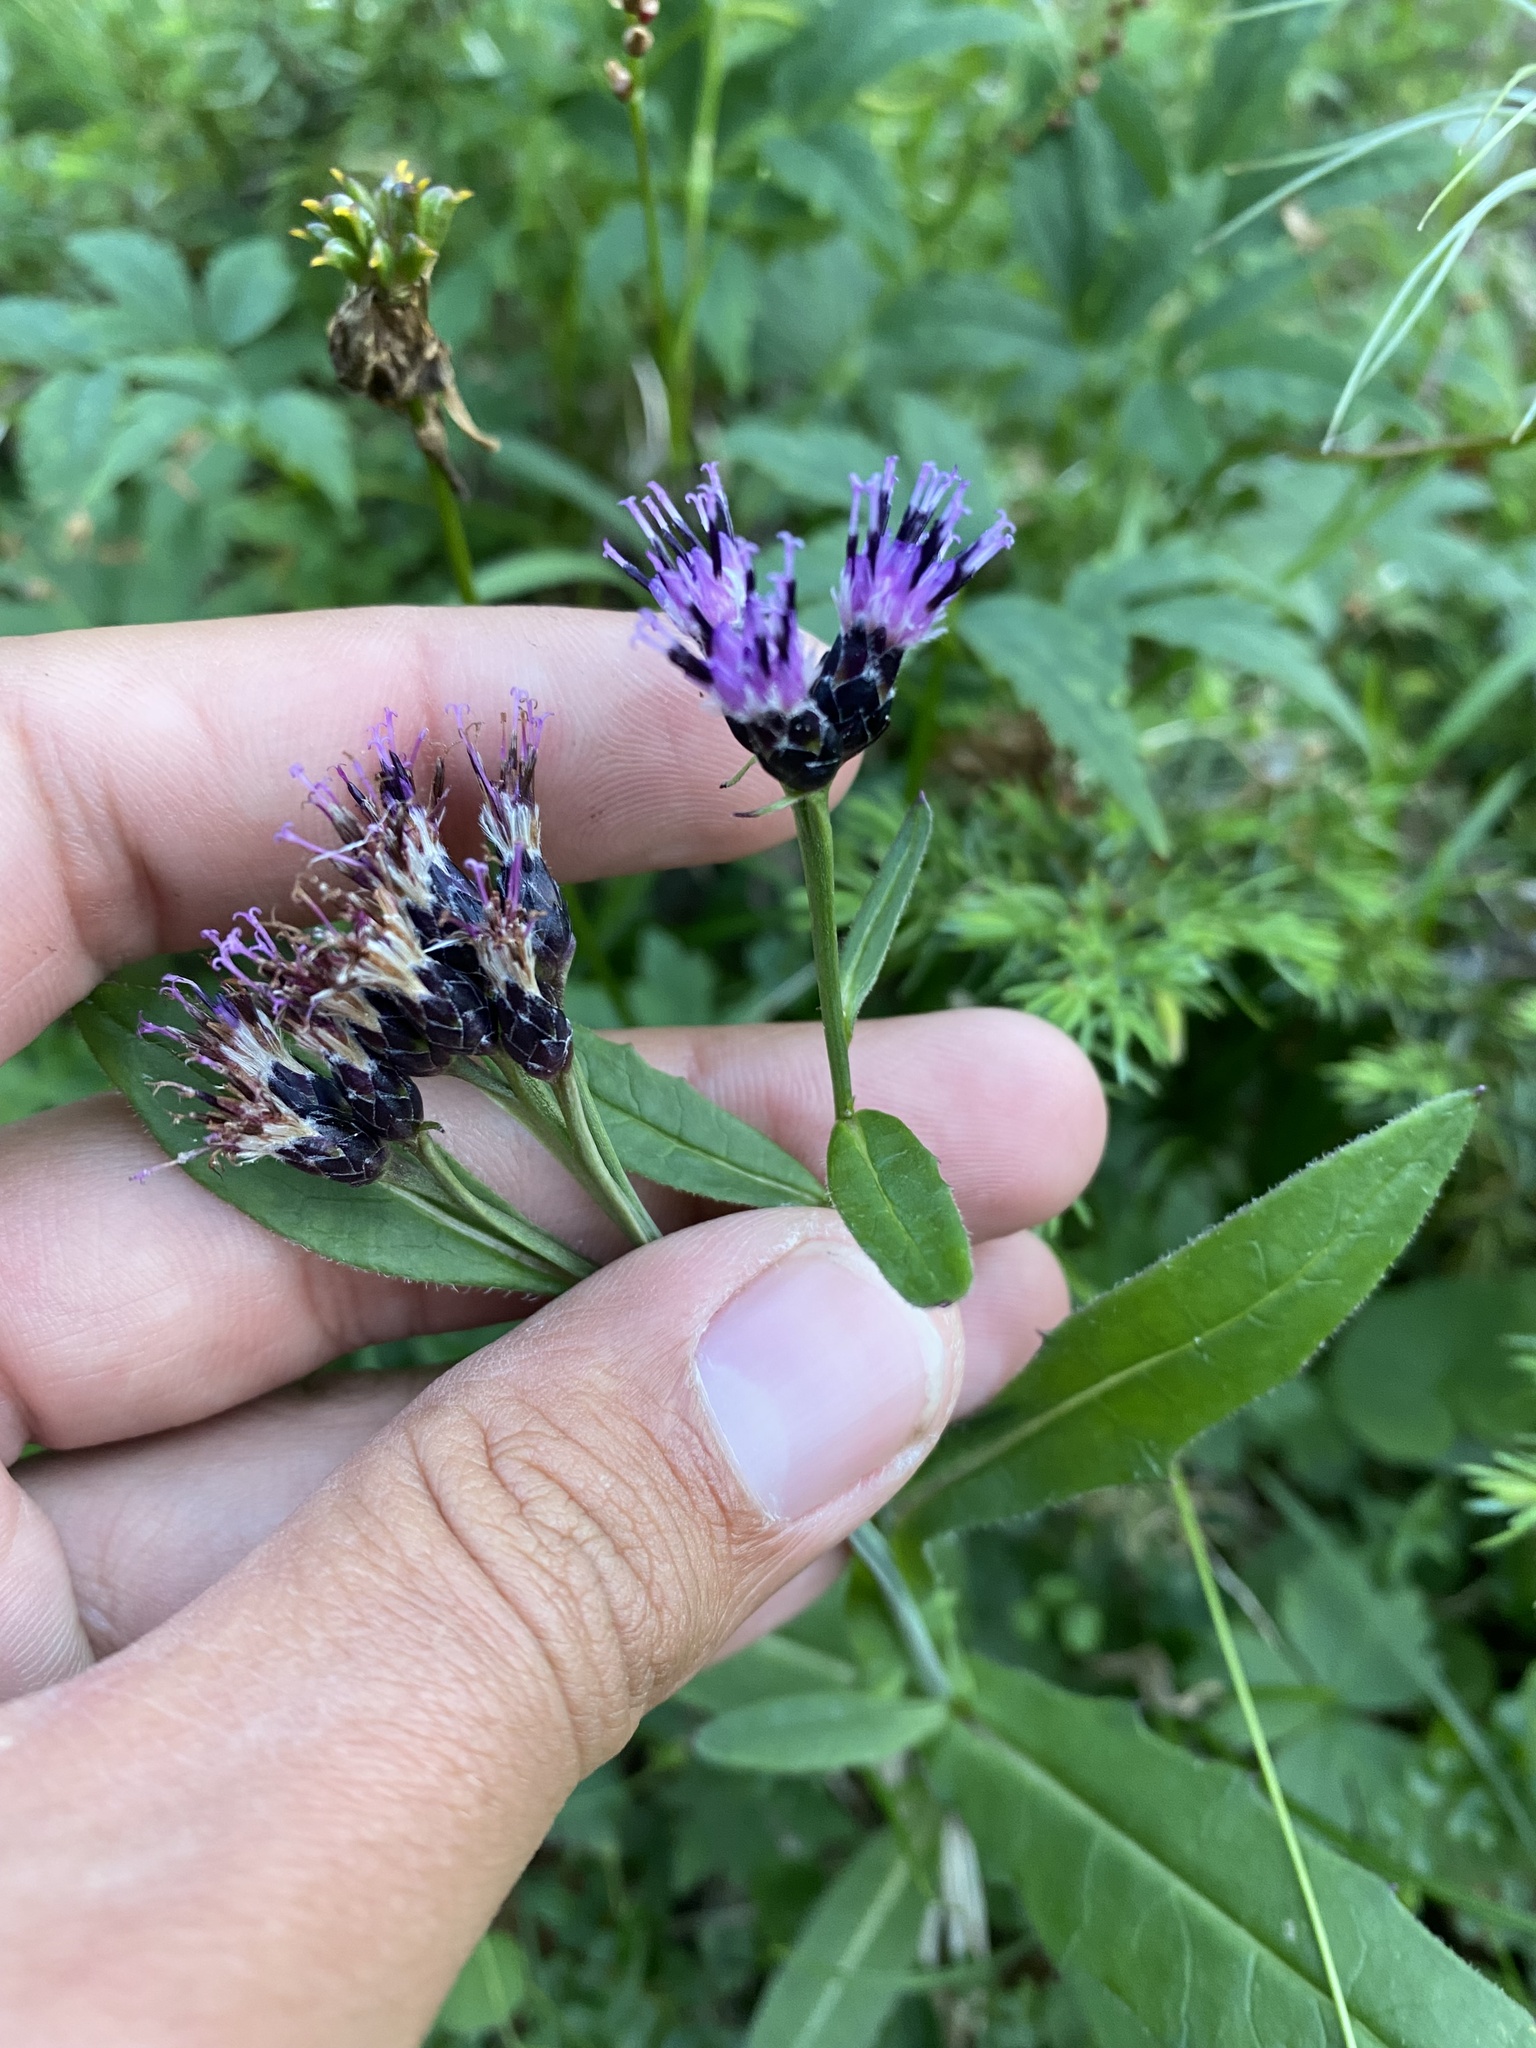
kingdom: Plantae
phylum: Tracheophyta
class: Magnoliopsida
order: Asterales
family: Asteraceae
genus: Saussurea
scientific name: Saussurea parviflora
